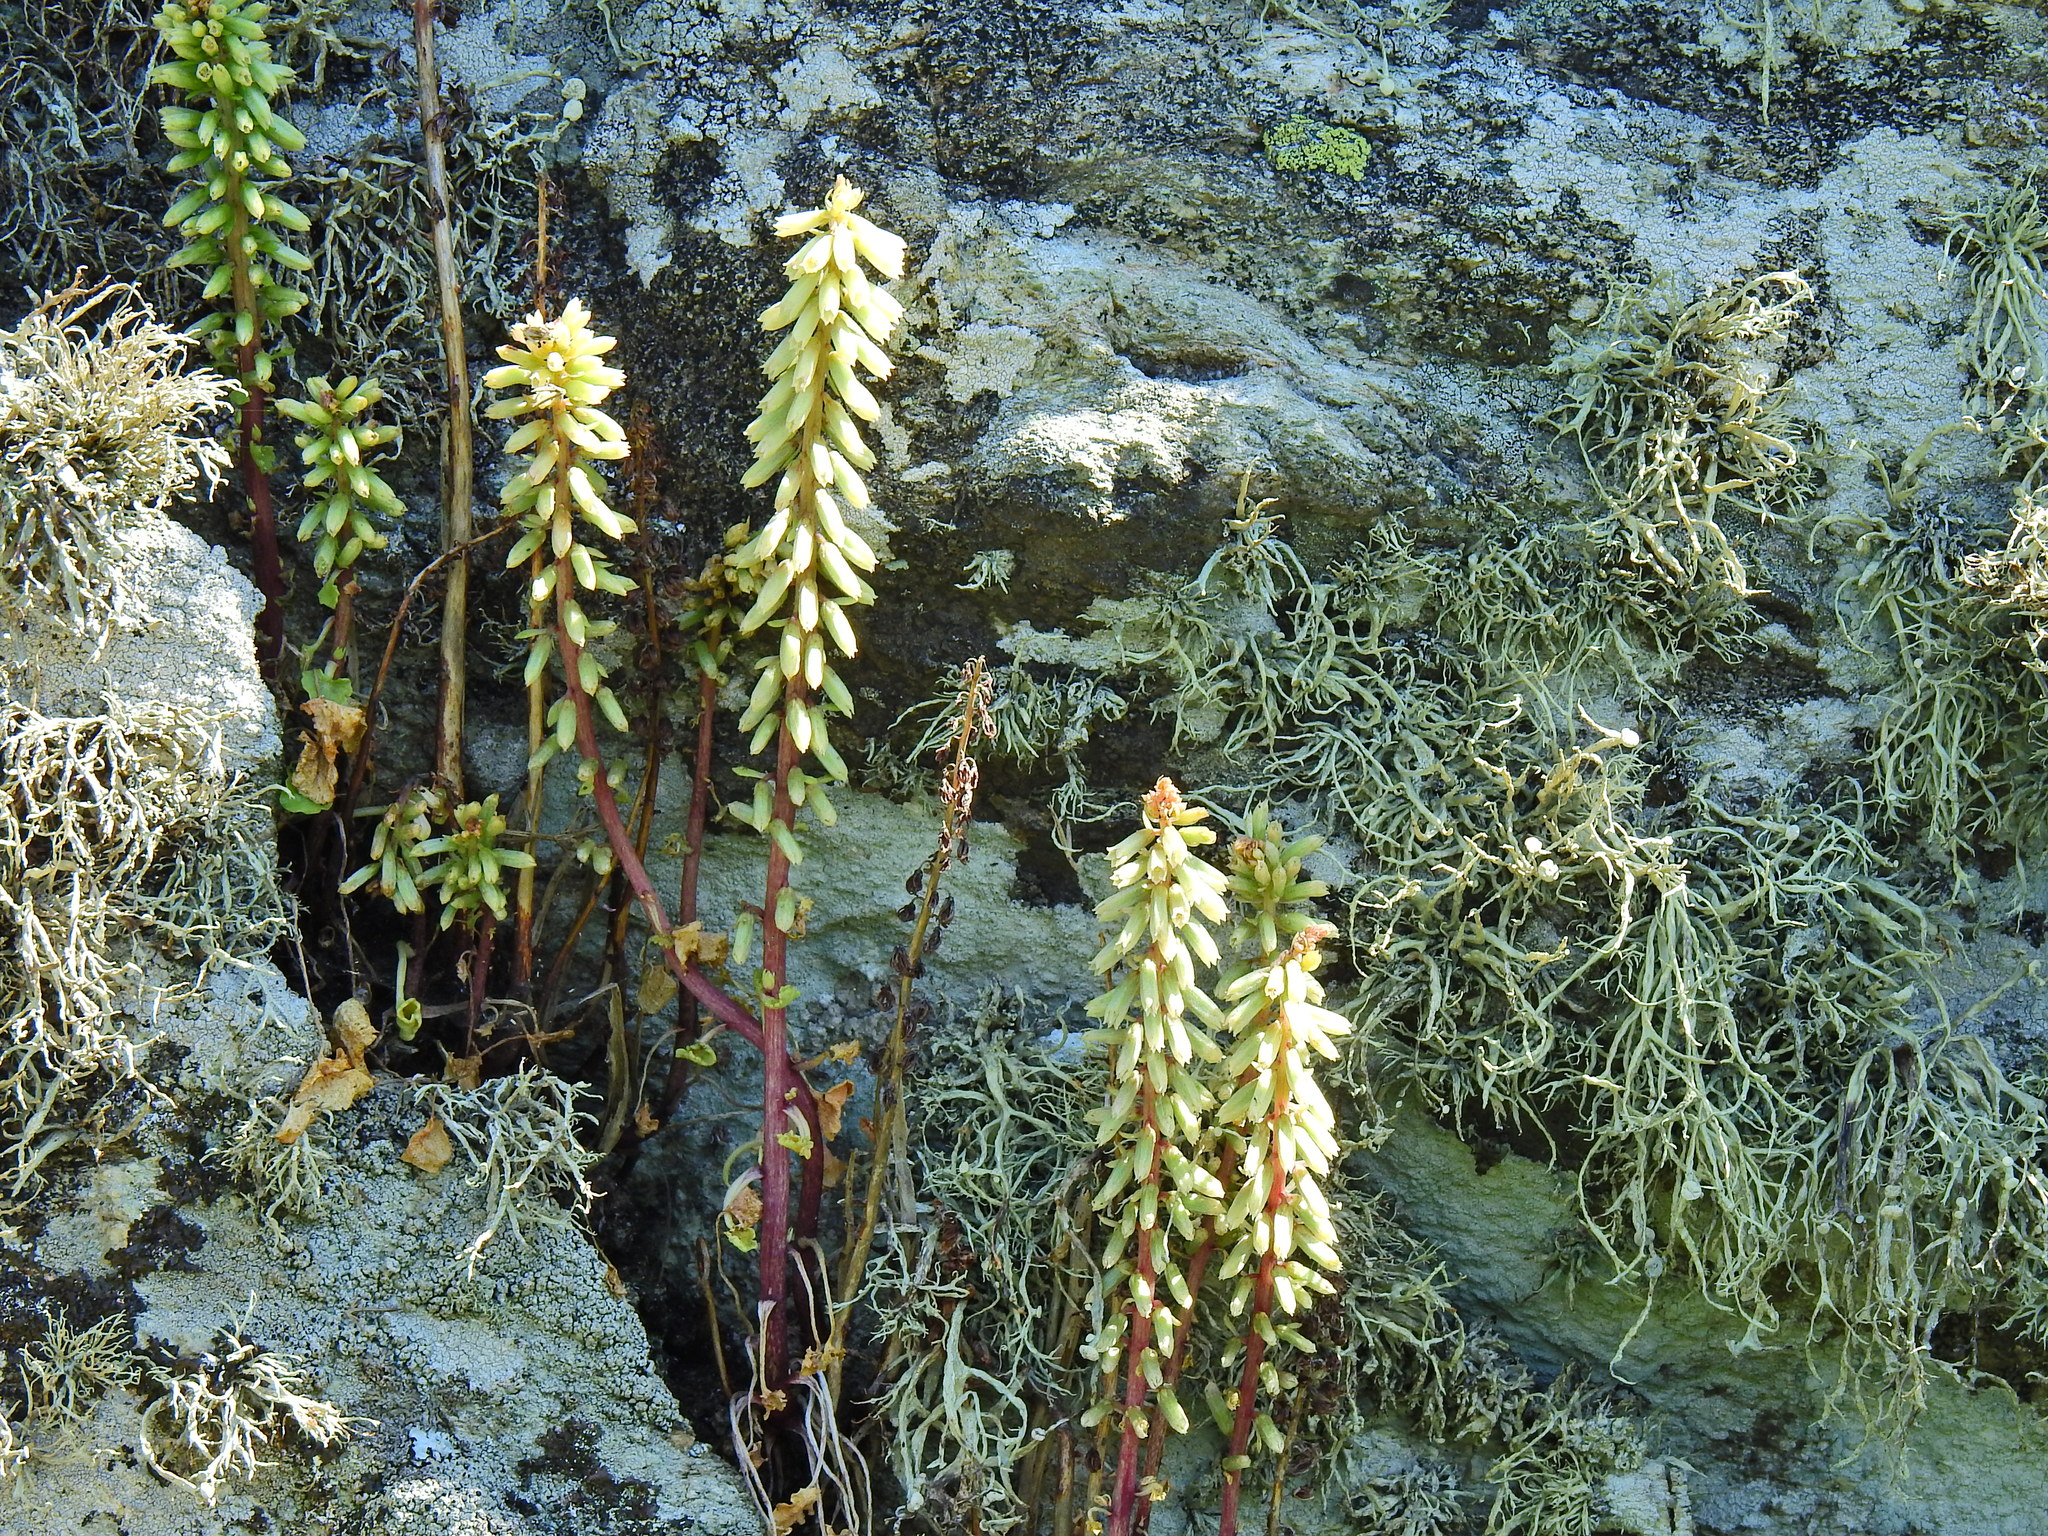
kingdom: Plantae
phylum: Tracheophyta
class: Magnoliopsida
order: Saxifragales
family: Crassulaceae
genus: Umbilicus
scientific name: Umbilicus rupestris
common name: Navelwort
